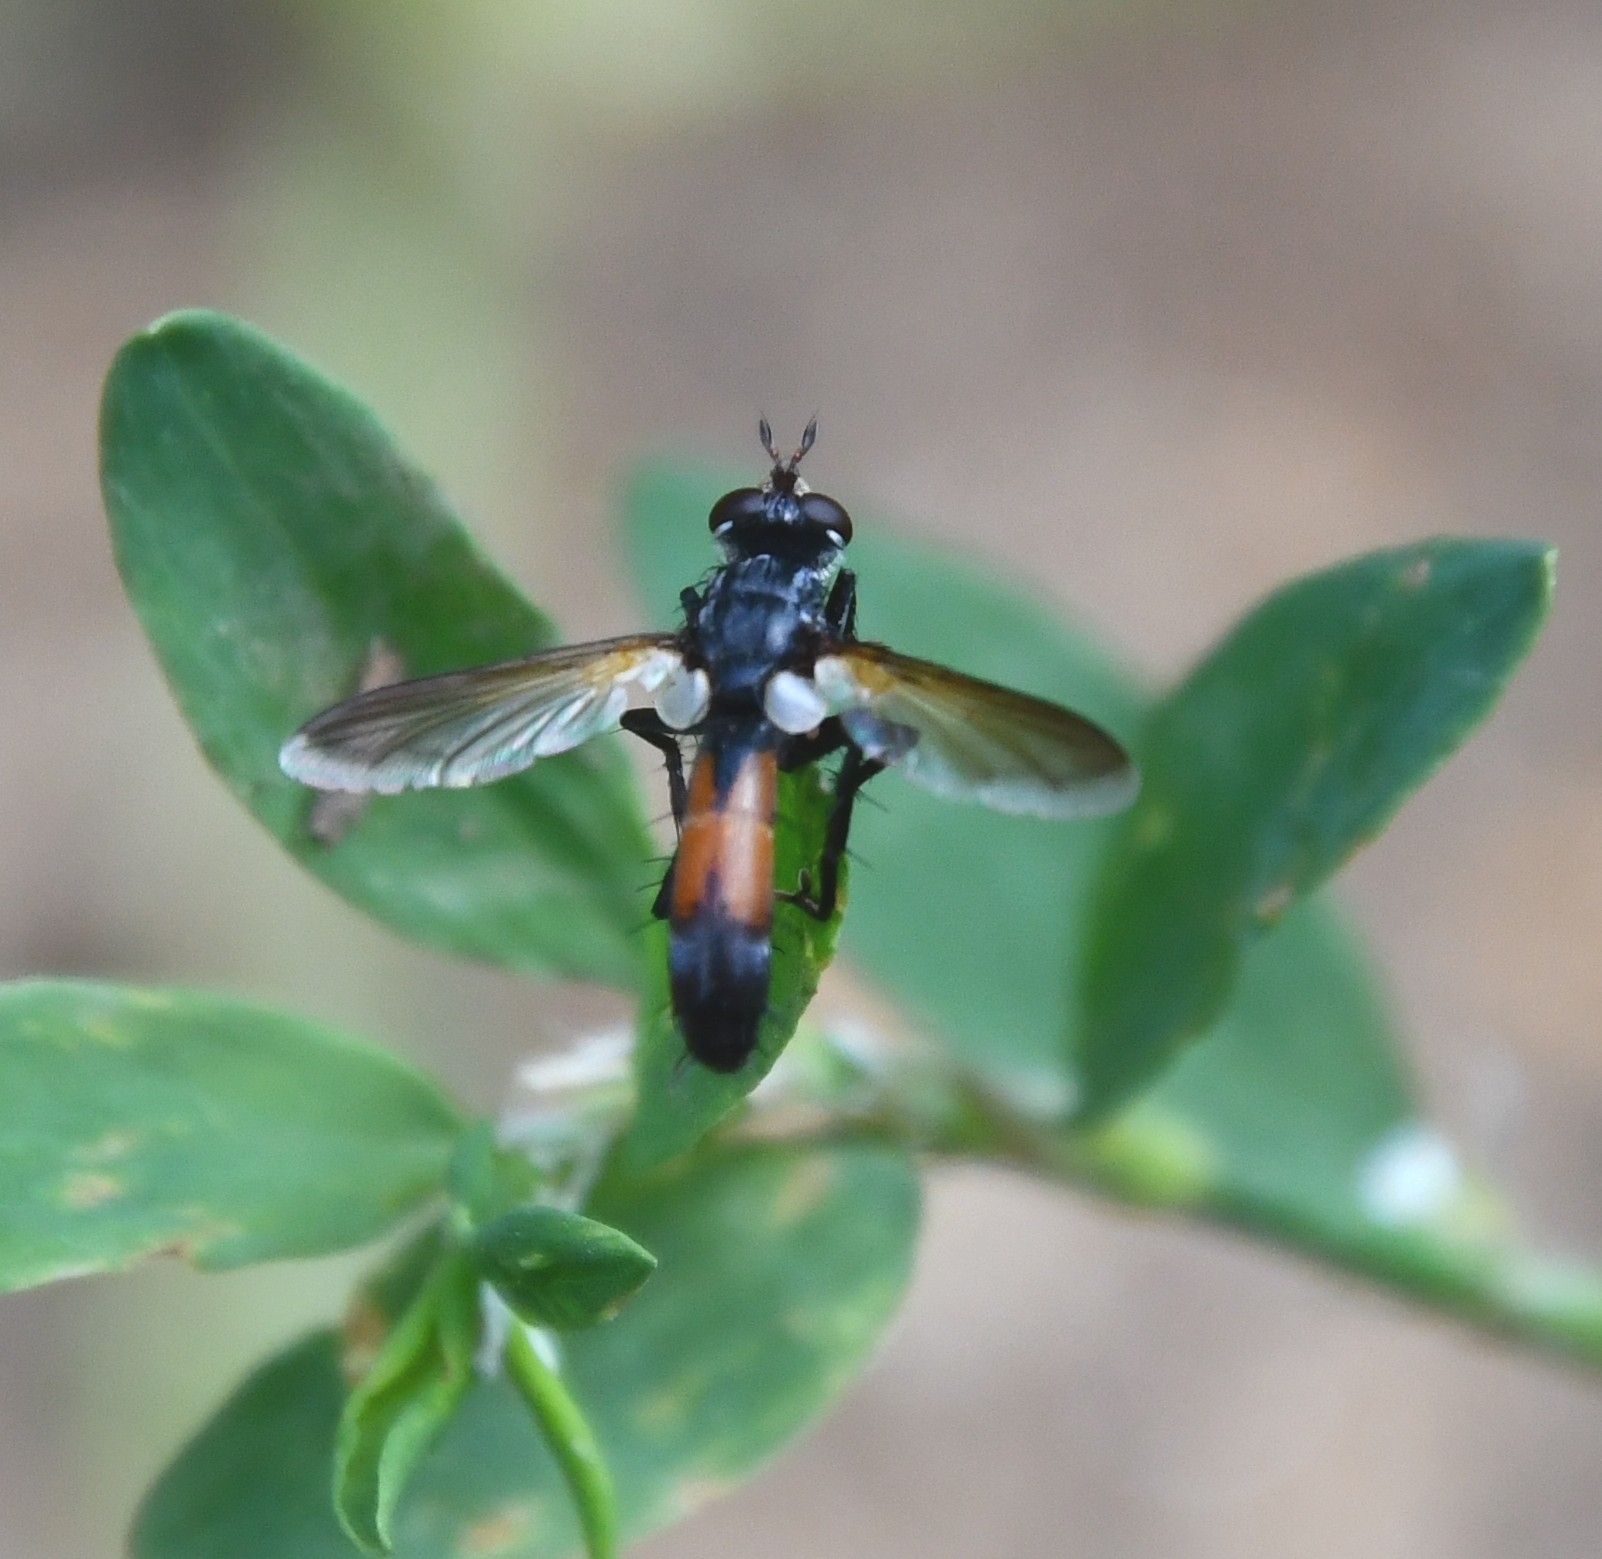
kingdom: Animalia
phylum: Arthropoda
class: Insecta
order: Diptera
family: Tachinidae
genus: Cylindromyia
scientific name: Cylindromyia intermedia
